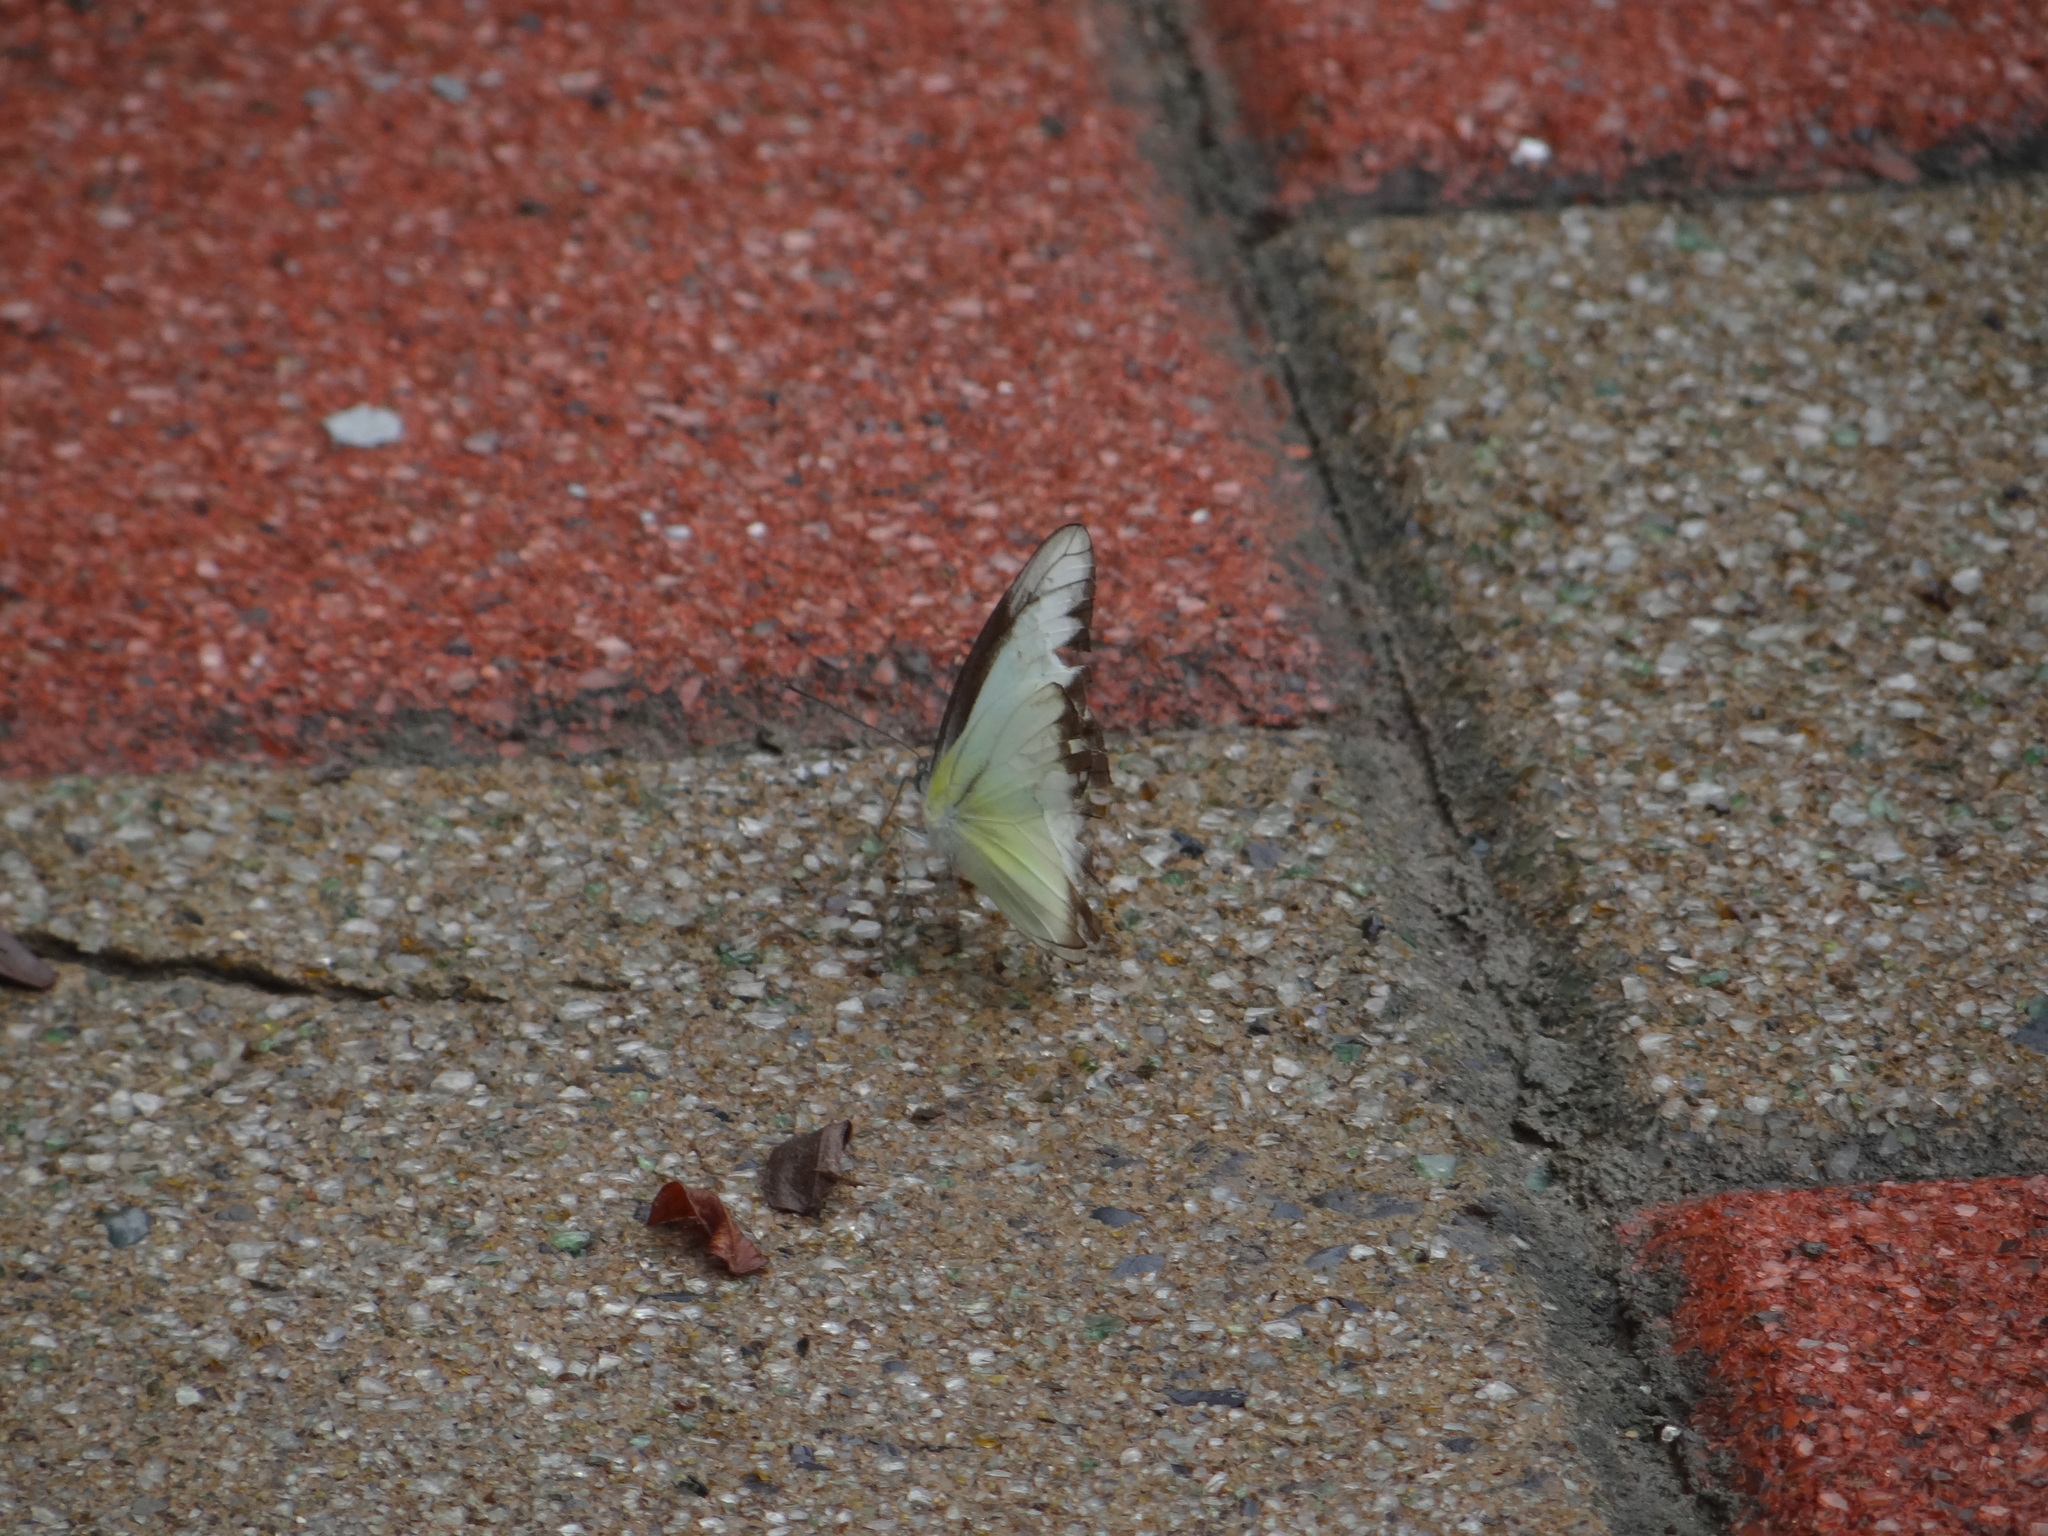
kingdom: Animalia
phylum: Arthropoda
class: Insecta
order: Lepidoptera
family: Pieridae
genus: Appias
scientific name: Appias lyncida
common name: Chocolate albatross
